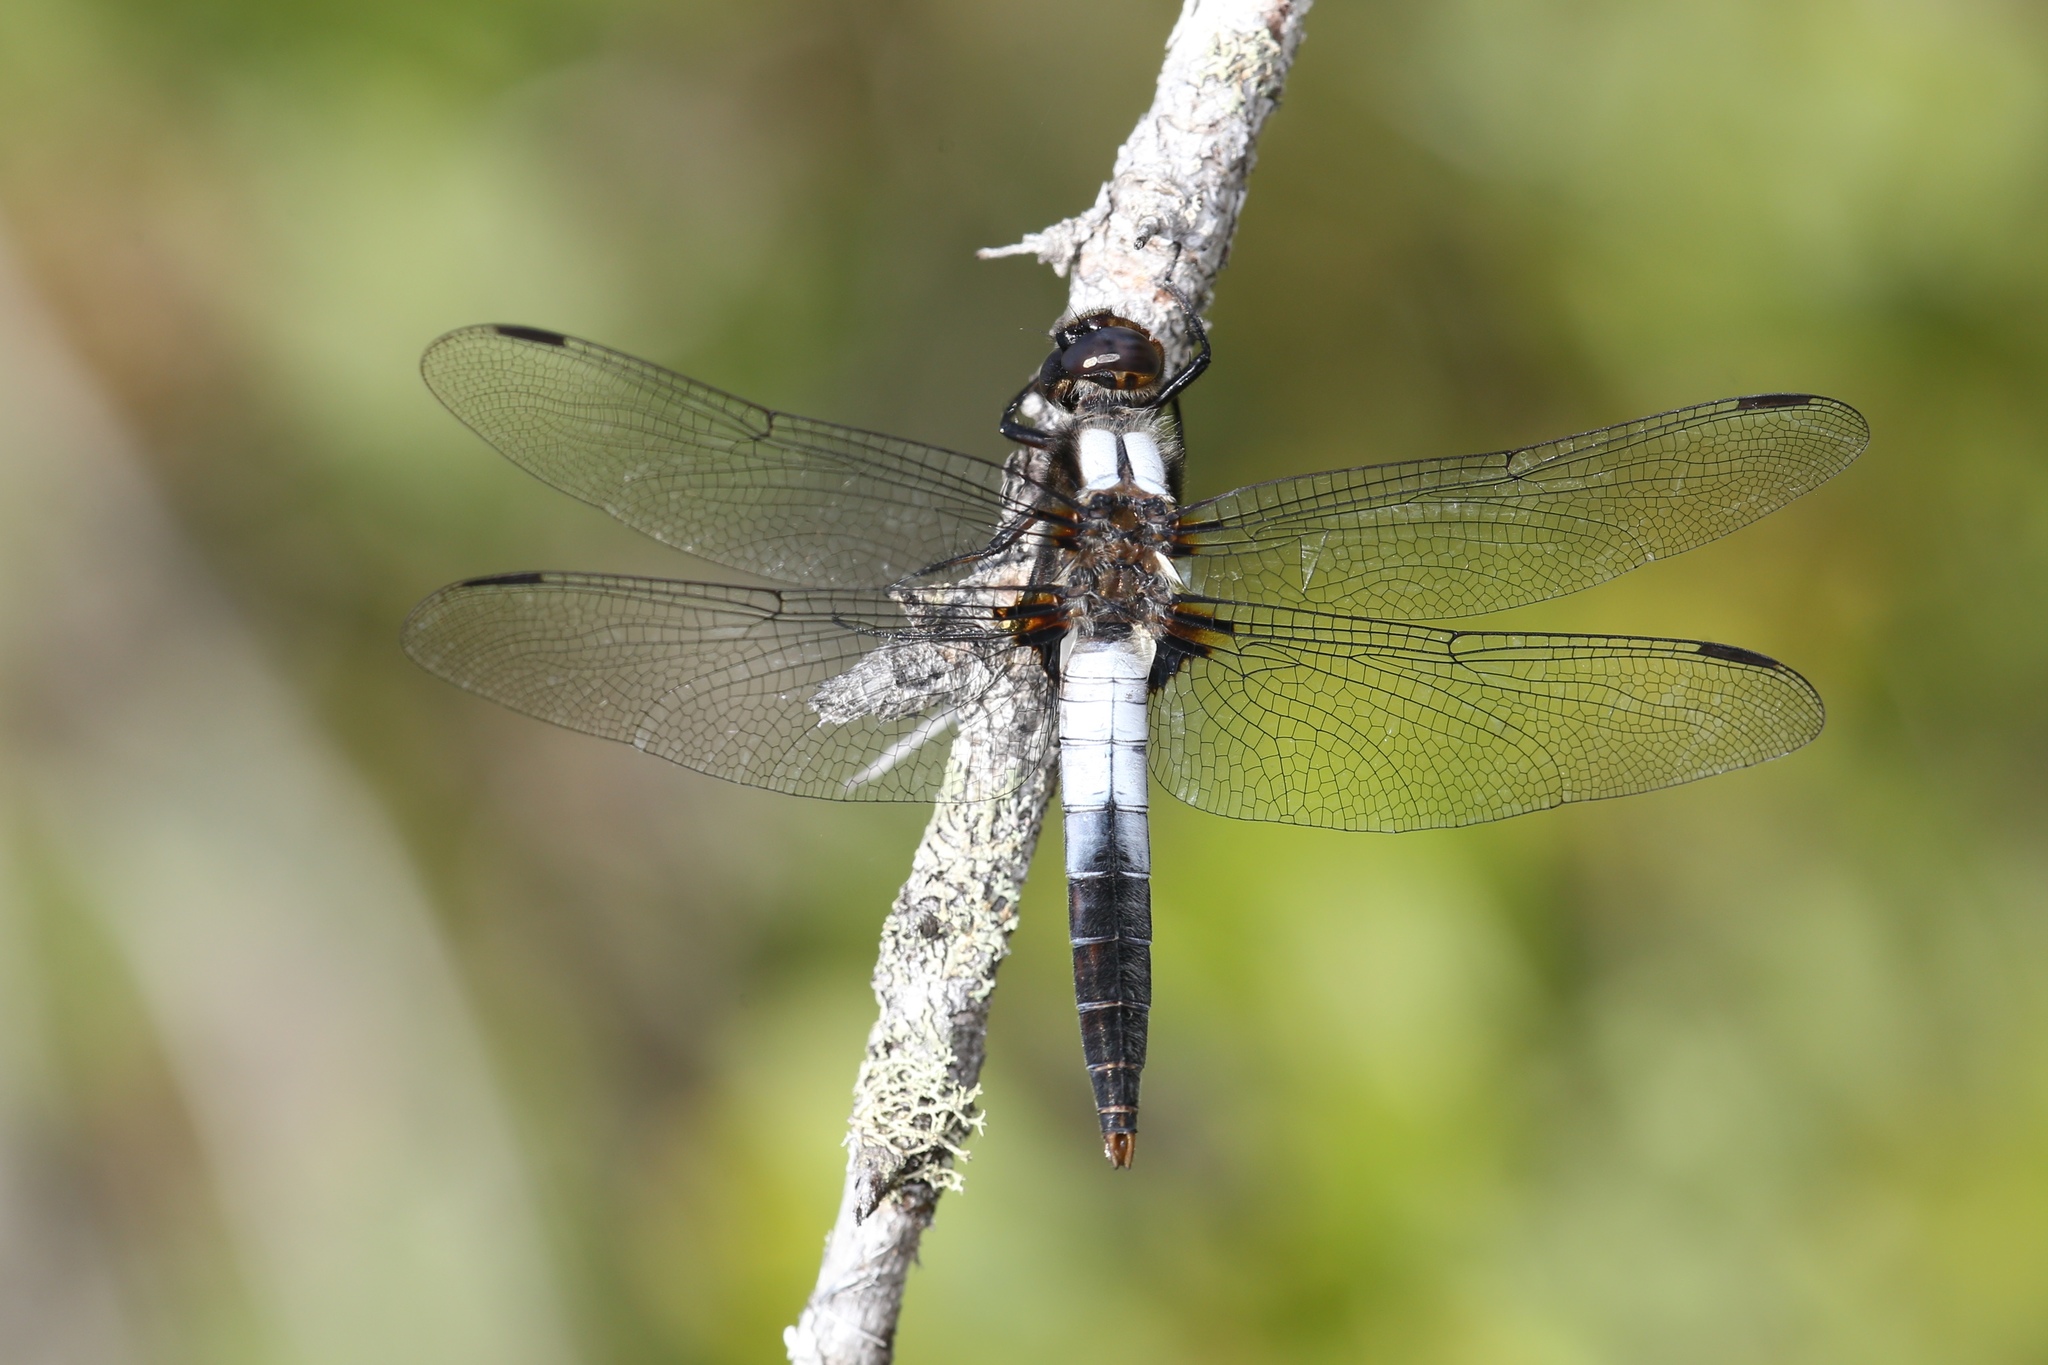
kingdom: Animalia
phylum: Arthropoda
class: Insecta
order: Odonata
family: Libellulidae
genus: Ladona
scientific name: Ladona julia
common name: Chalk-fronted corporal
